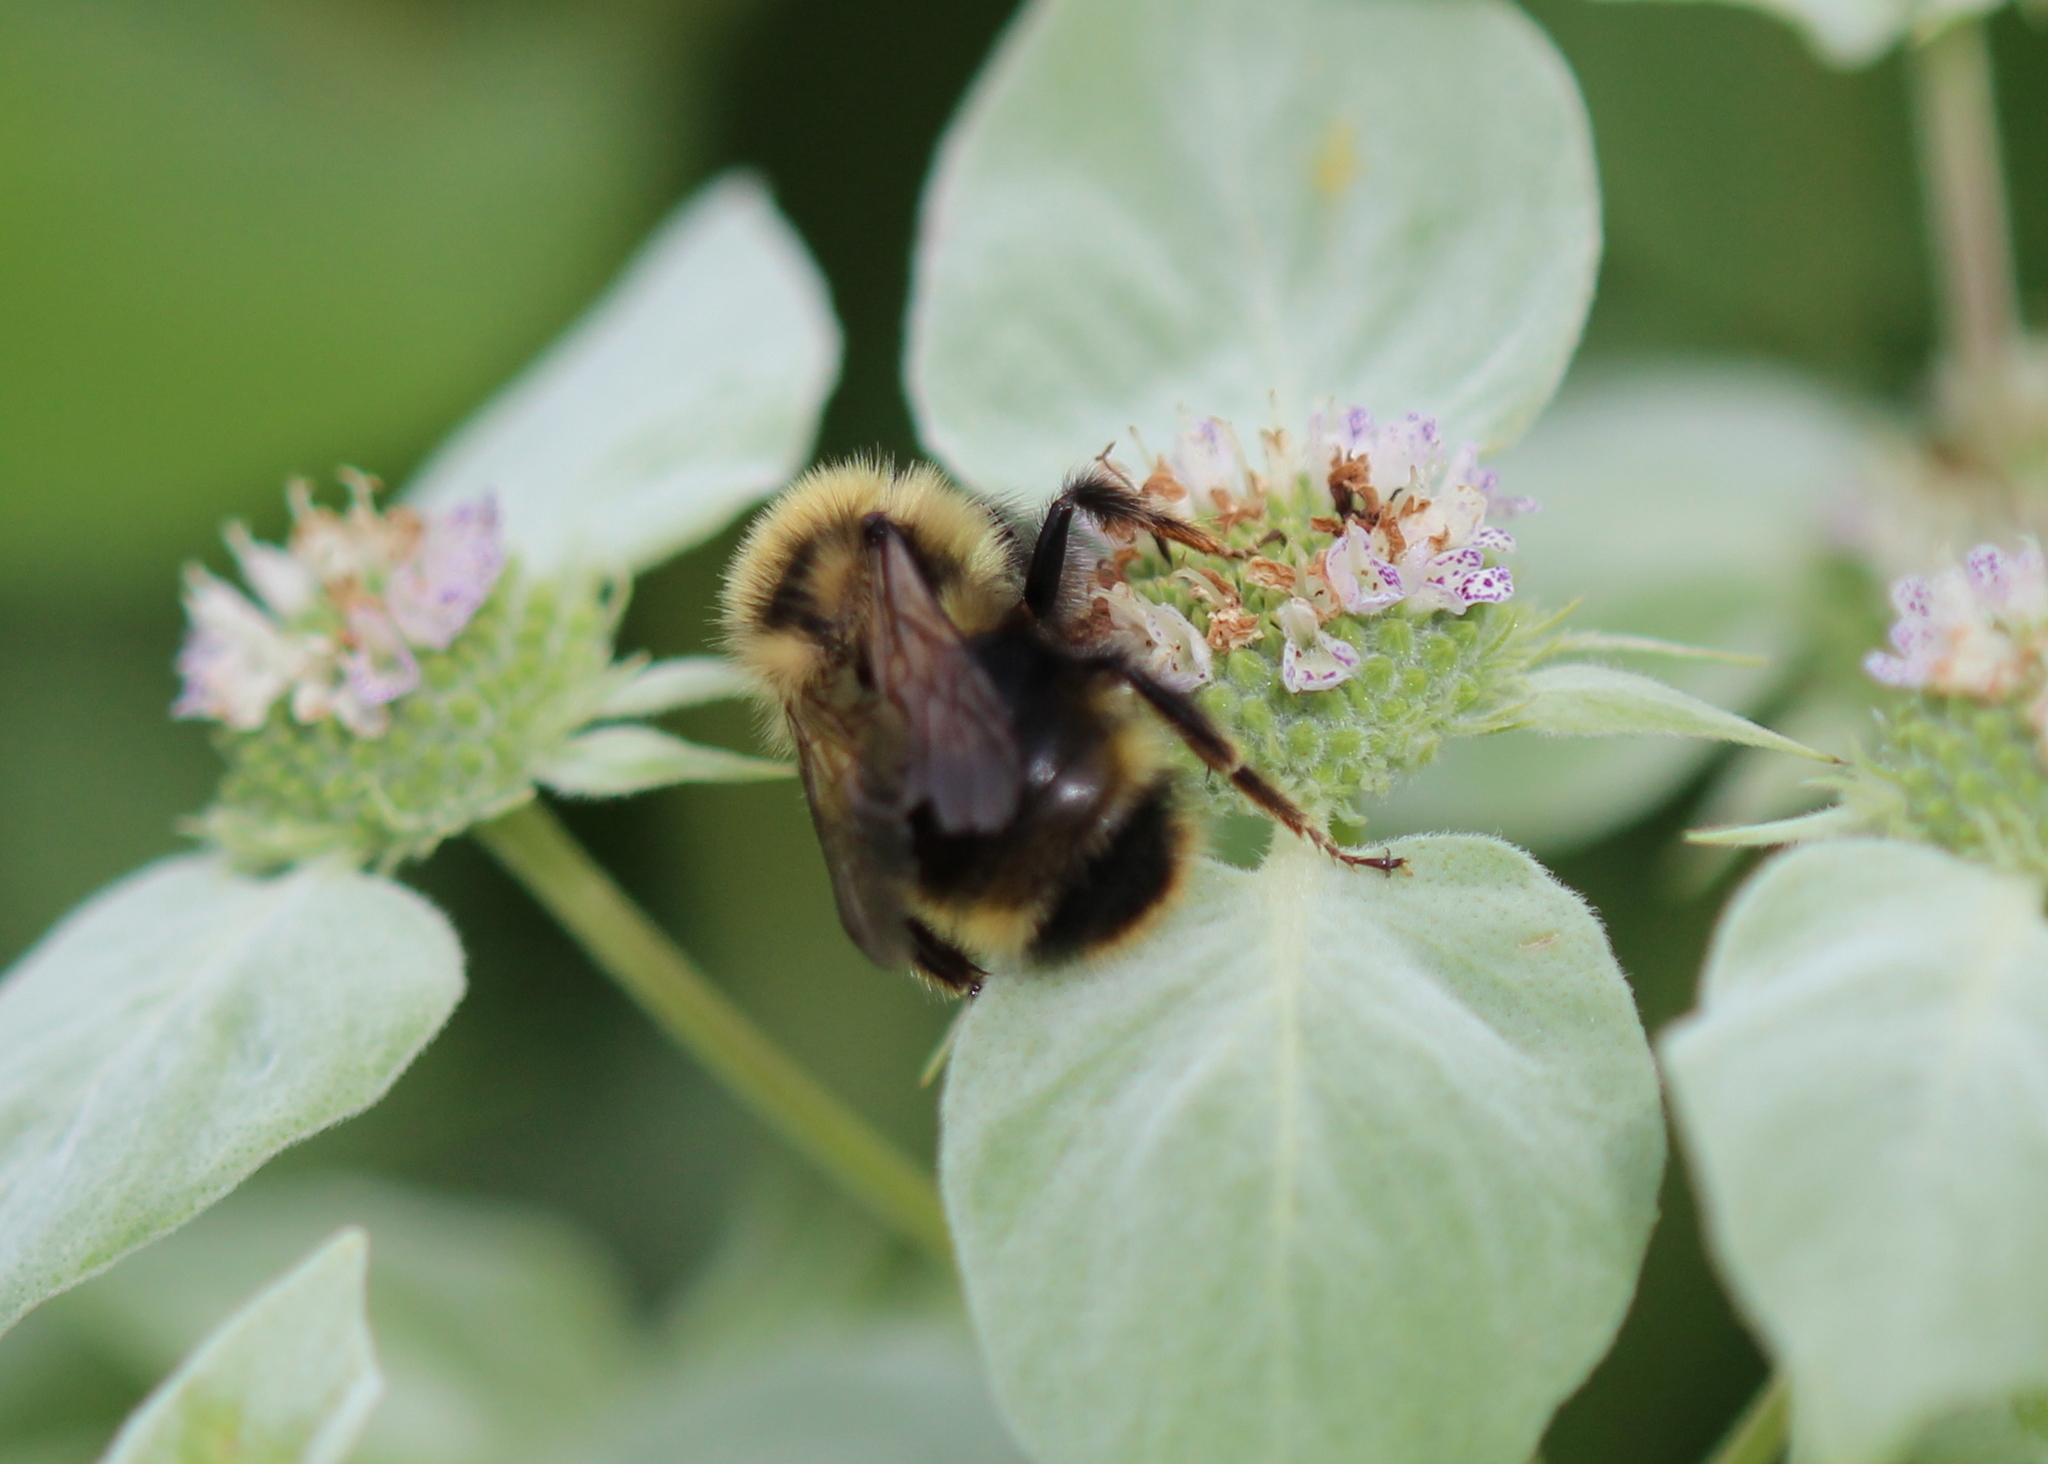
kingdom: Animalia
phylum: Arthropoda
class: Insecta
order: Hymenoptera
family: Apidae
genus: Bombus
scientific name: Bombus flavidus
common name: Fernald cuckoo bumble bee
